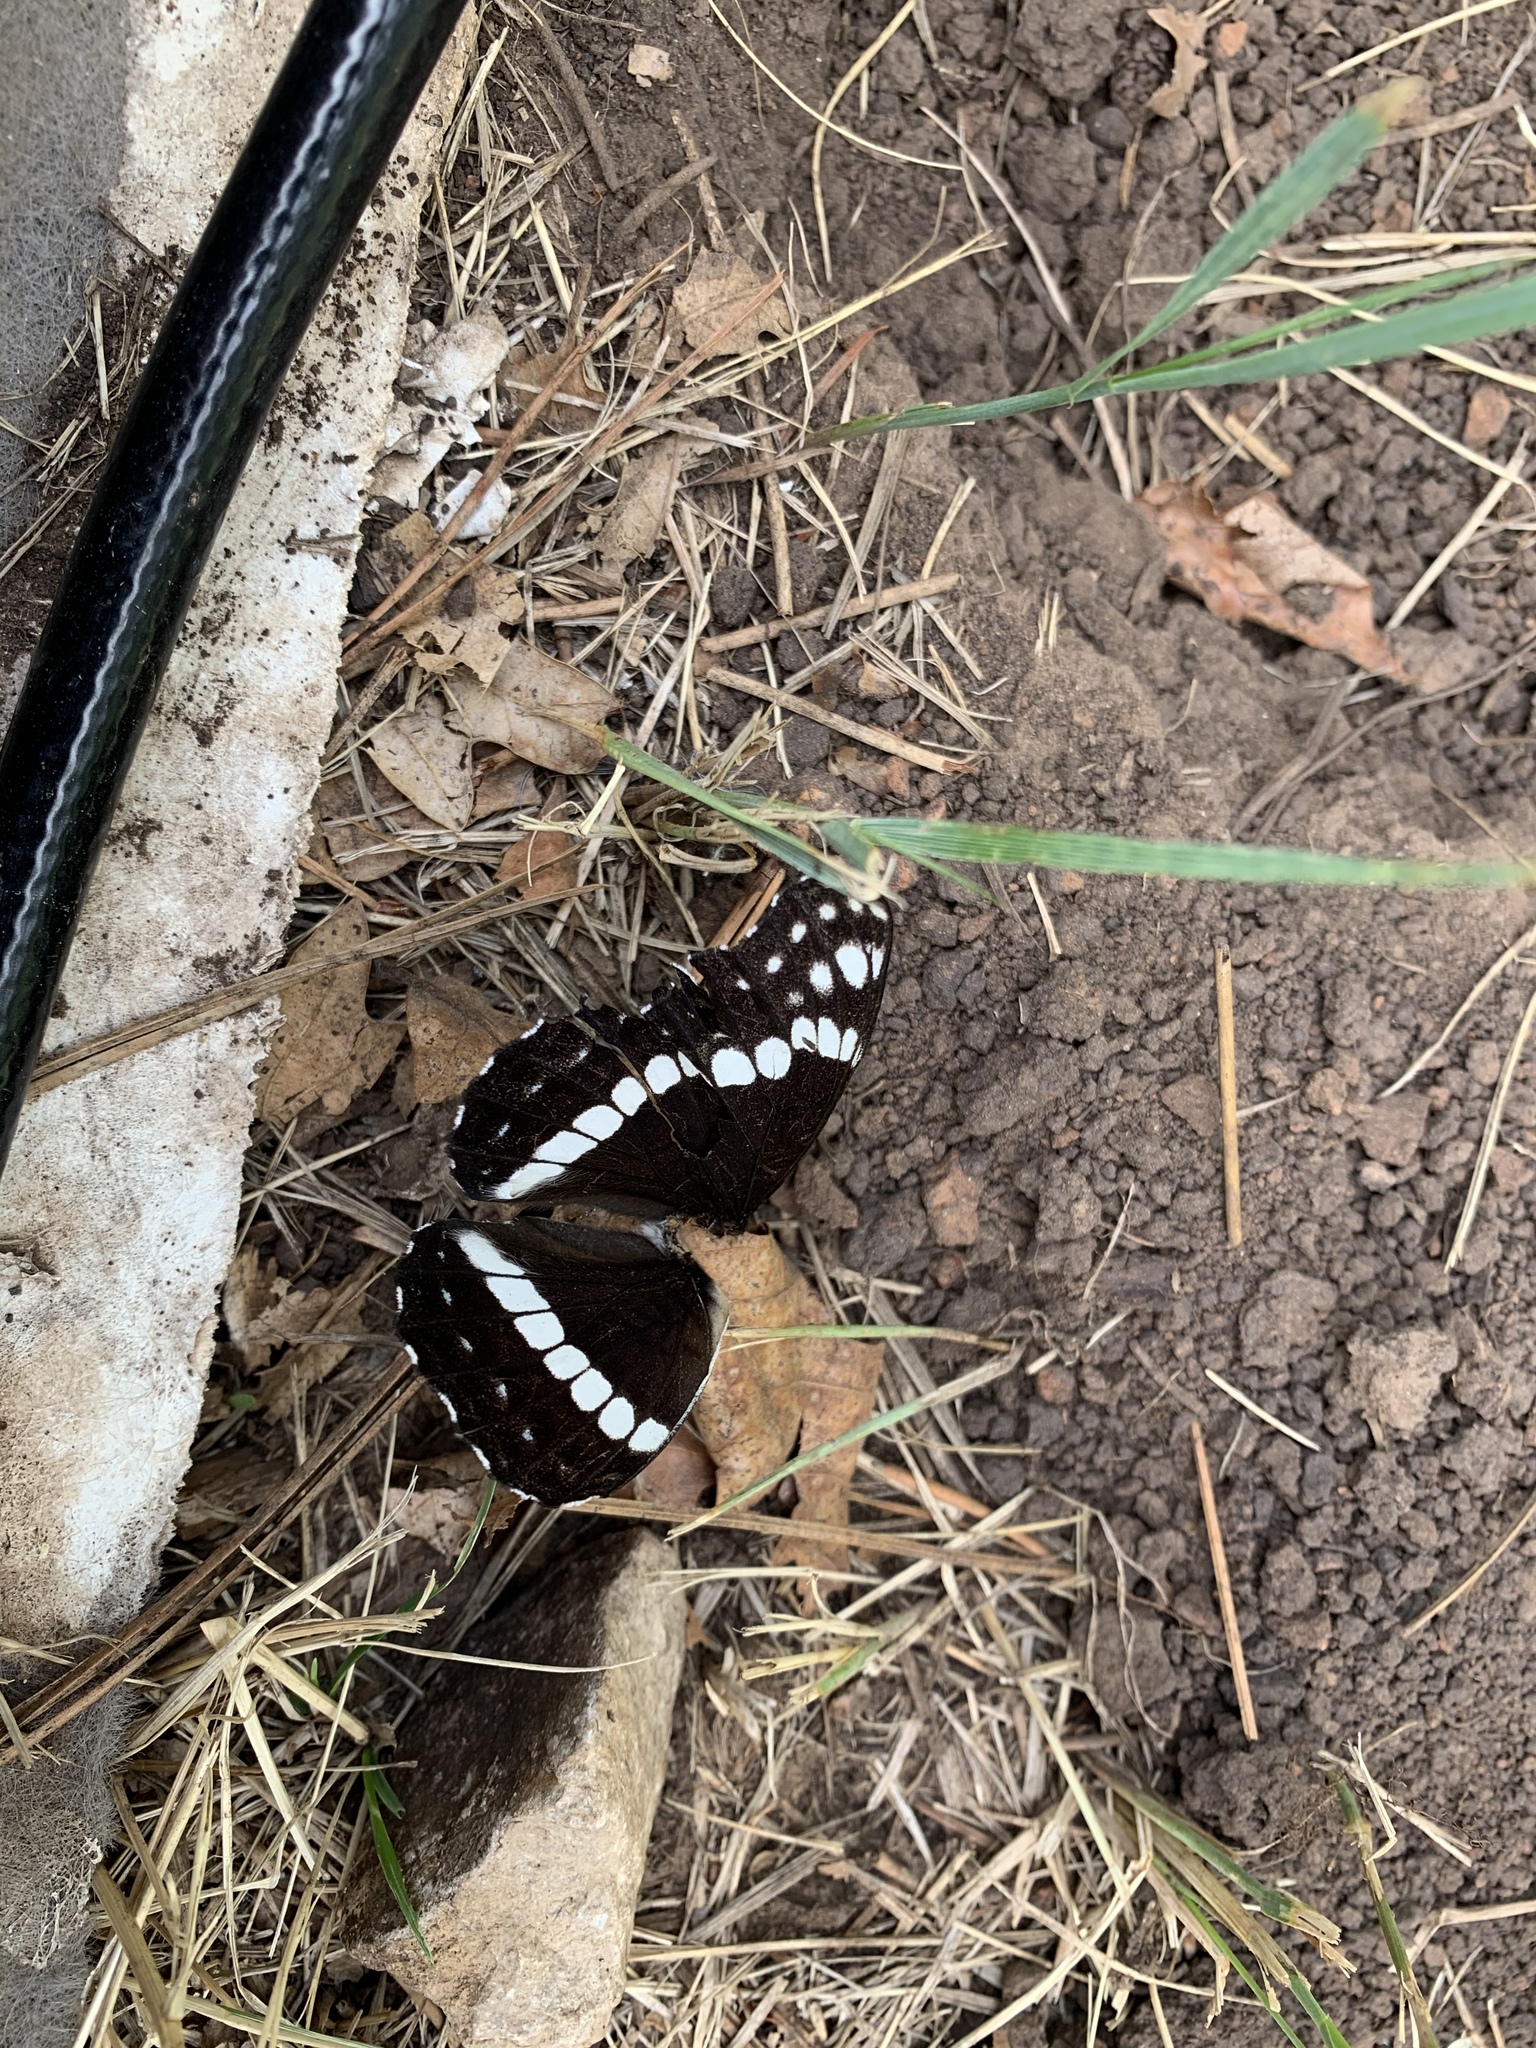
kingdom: Animalia
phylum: Arthropoda
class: Insecta
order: Lepidoptera
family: Nymphalidae
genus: Limenitis
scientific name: Limenitis weidemeyerii
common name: Weidemeyer's admiral
